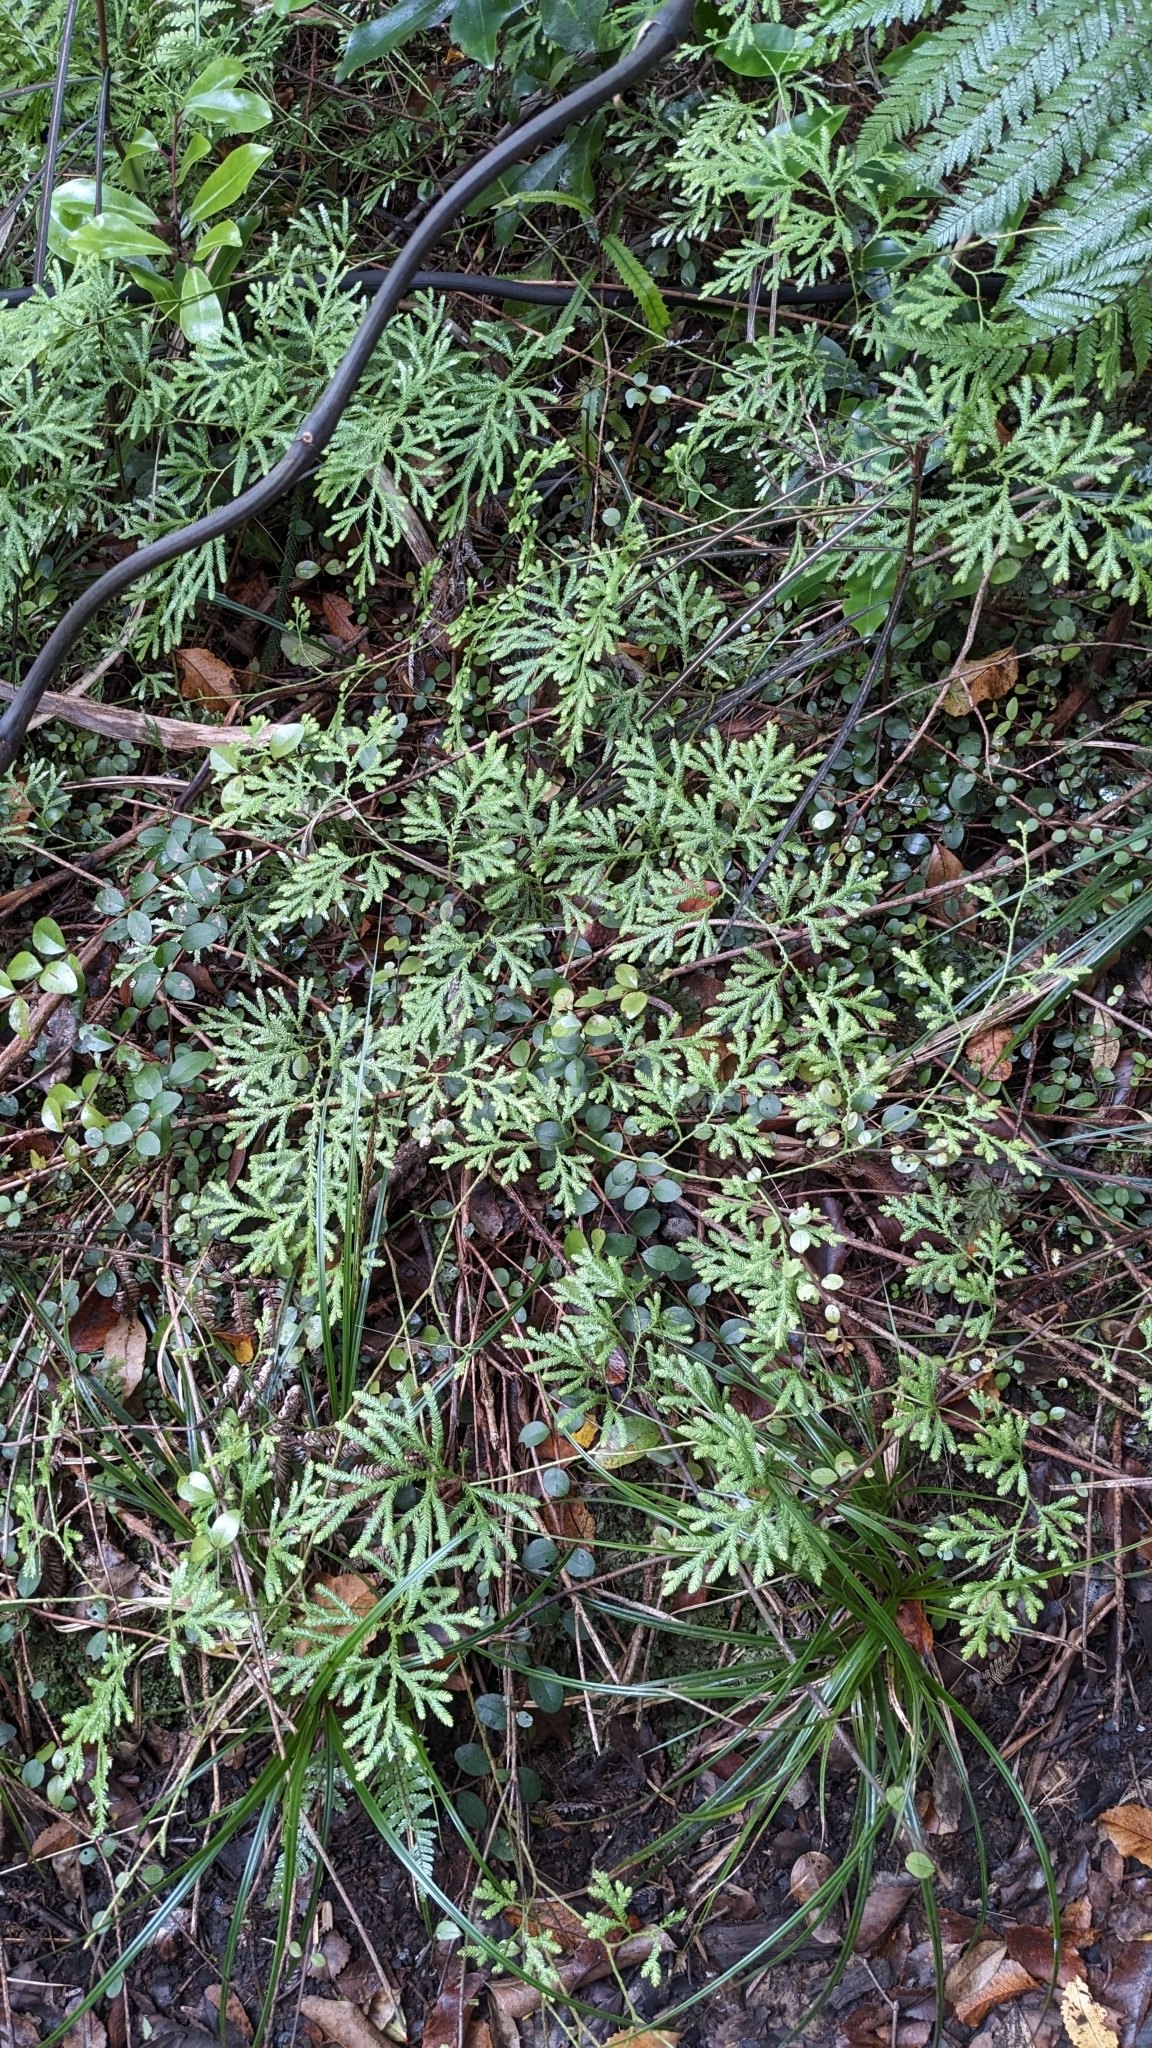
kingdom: Plantae
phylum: Tracheophyta
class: Lycopodiopsida
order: Lycopodiales
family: Lycopodiaceae
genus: Lycopodium
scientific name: Lycopodium volubile
